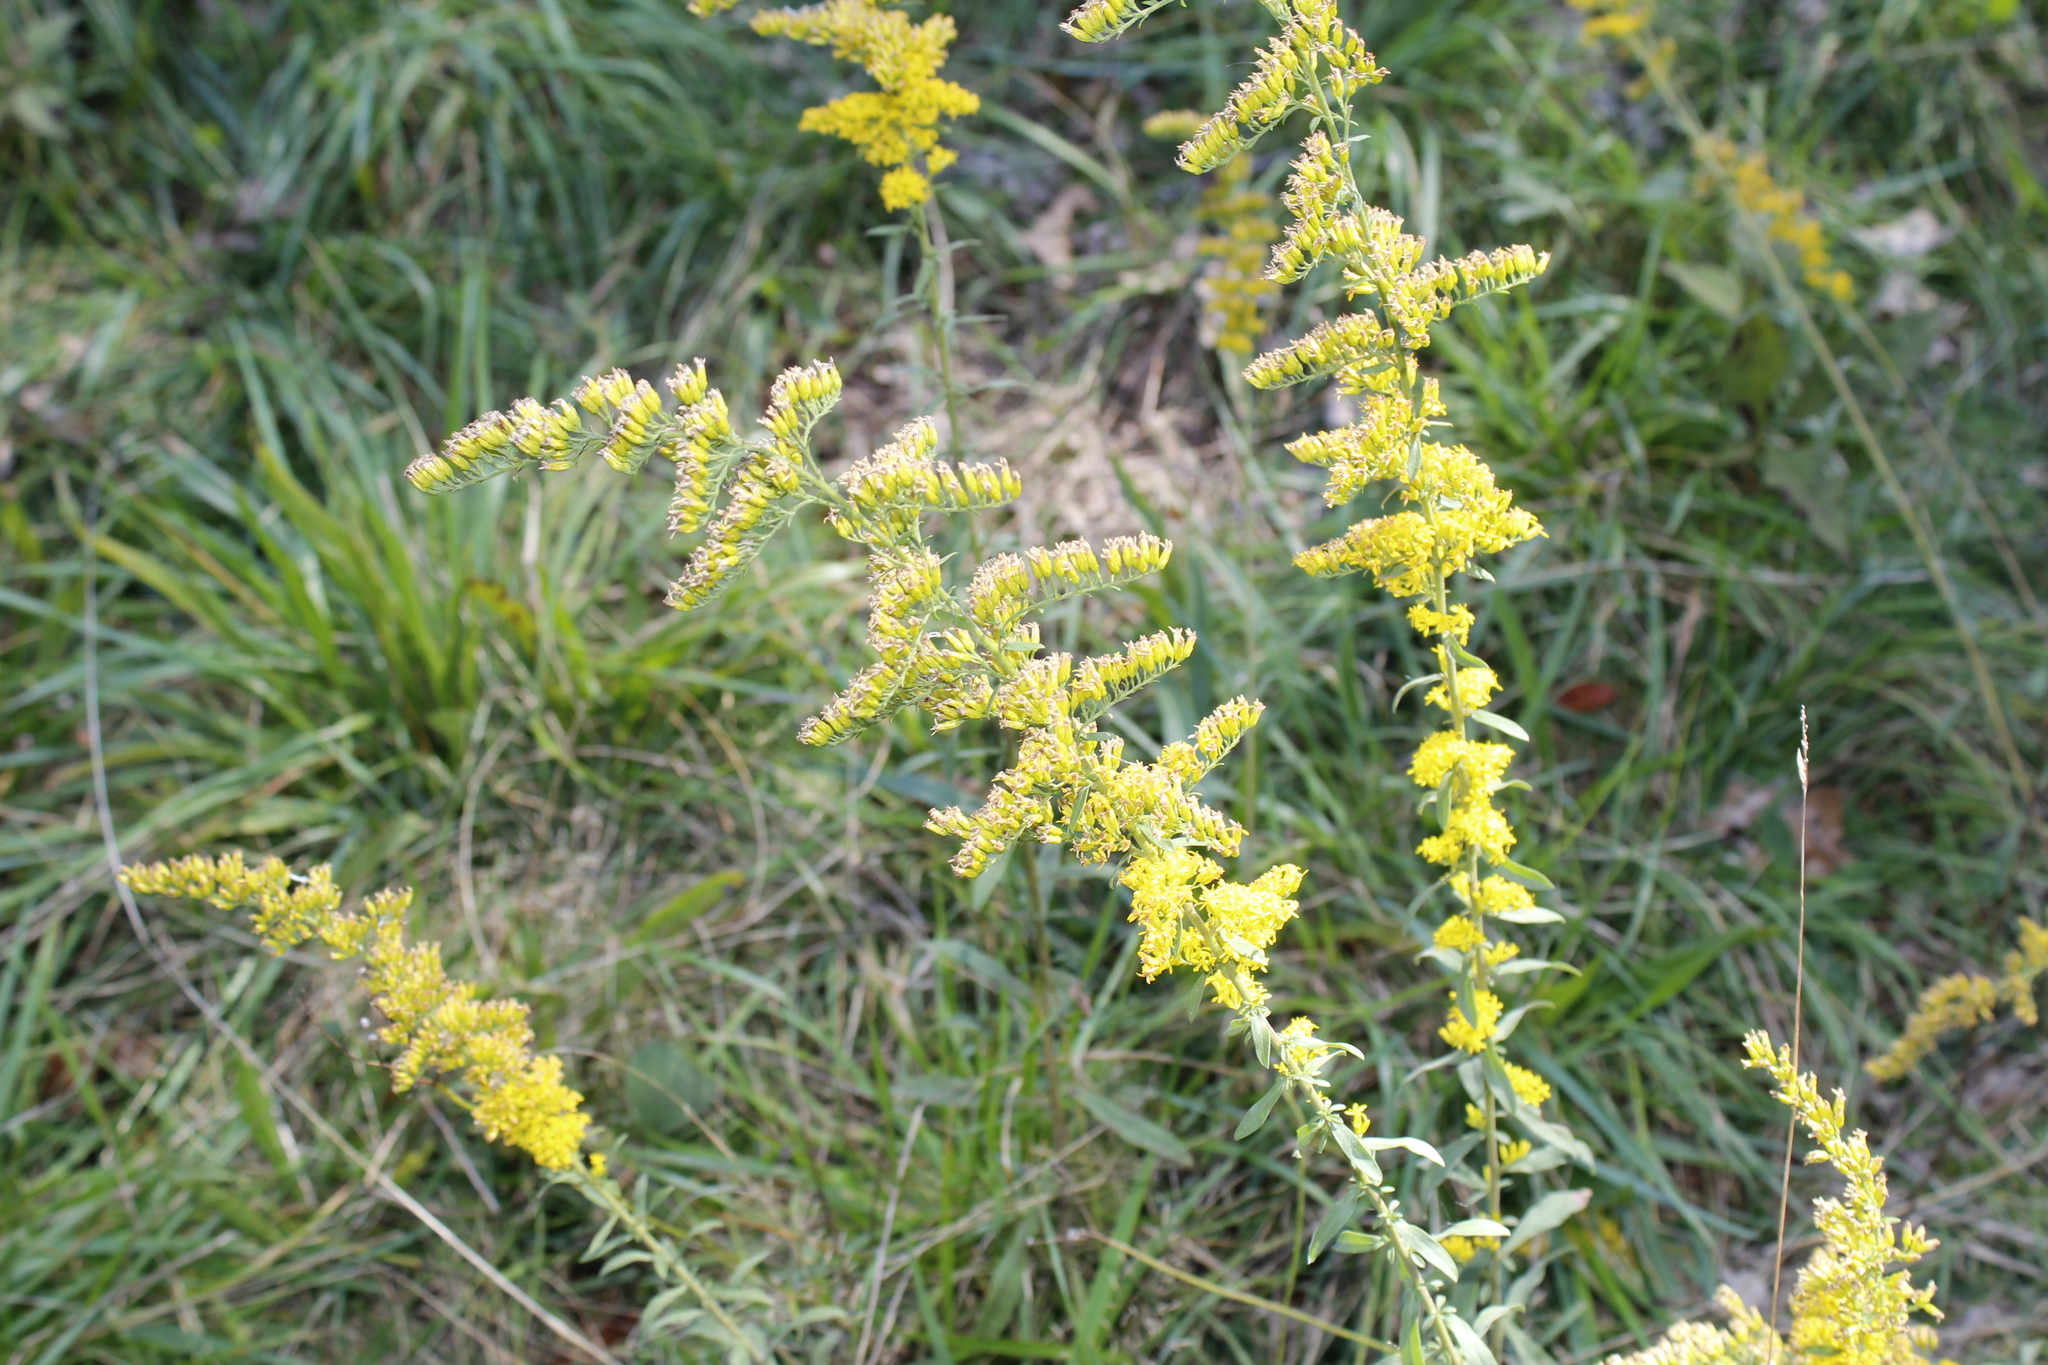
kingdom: Plantae
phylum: Tracheophyta
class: Magnoliopsida
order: Asterales
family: Asteraceae
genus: Solidago
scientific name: Solidago nemoralis
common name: Grey goldenrod
